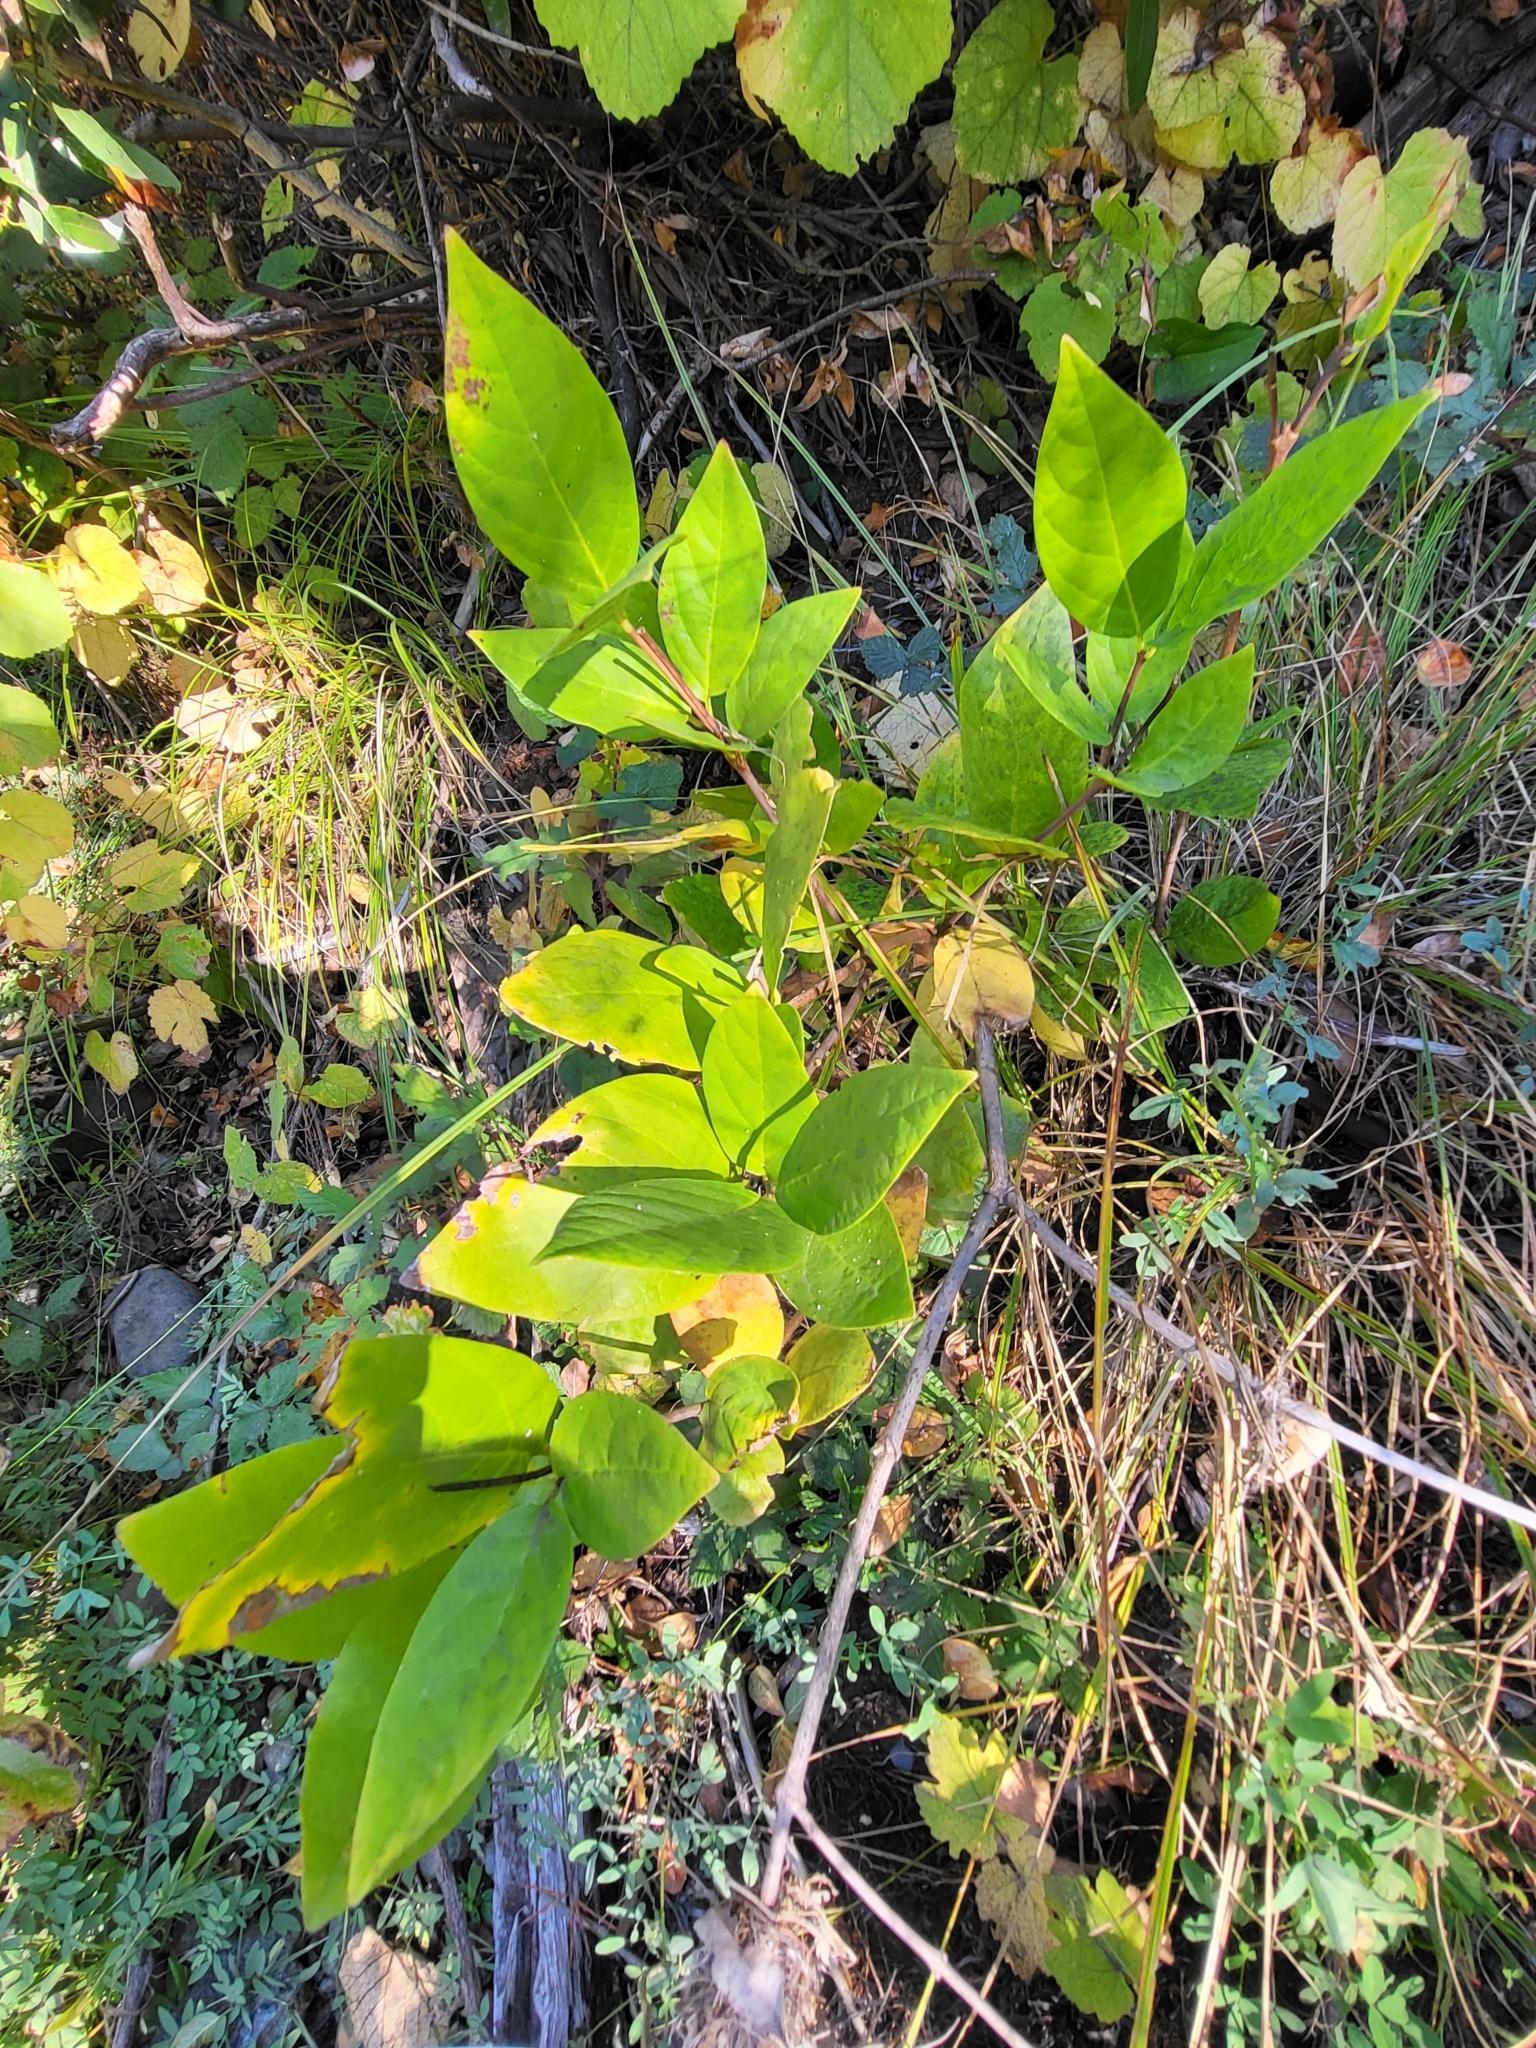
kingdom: Plantae
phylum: Tracheophyta
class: Magnoliopsida
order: Laurales
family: Calycanthaceae
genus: Calycanthus
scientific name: Calycanthus occidentalis
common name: California spicebush
